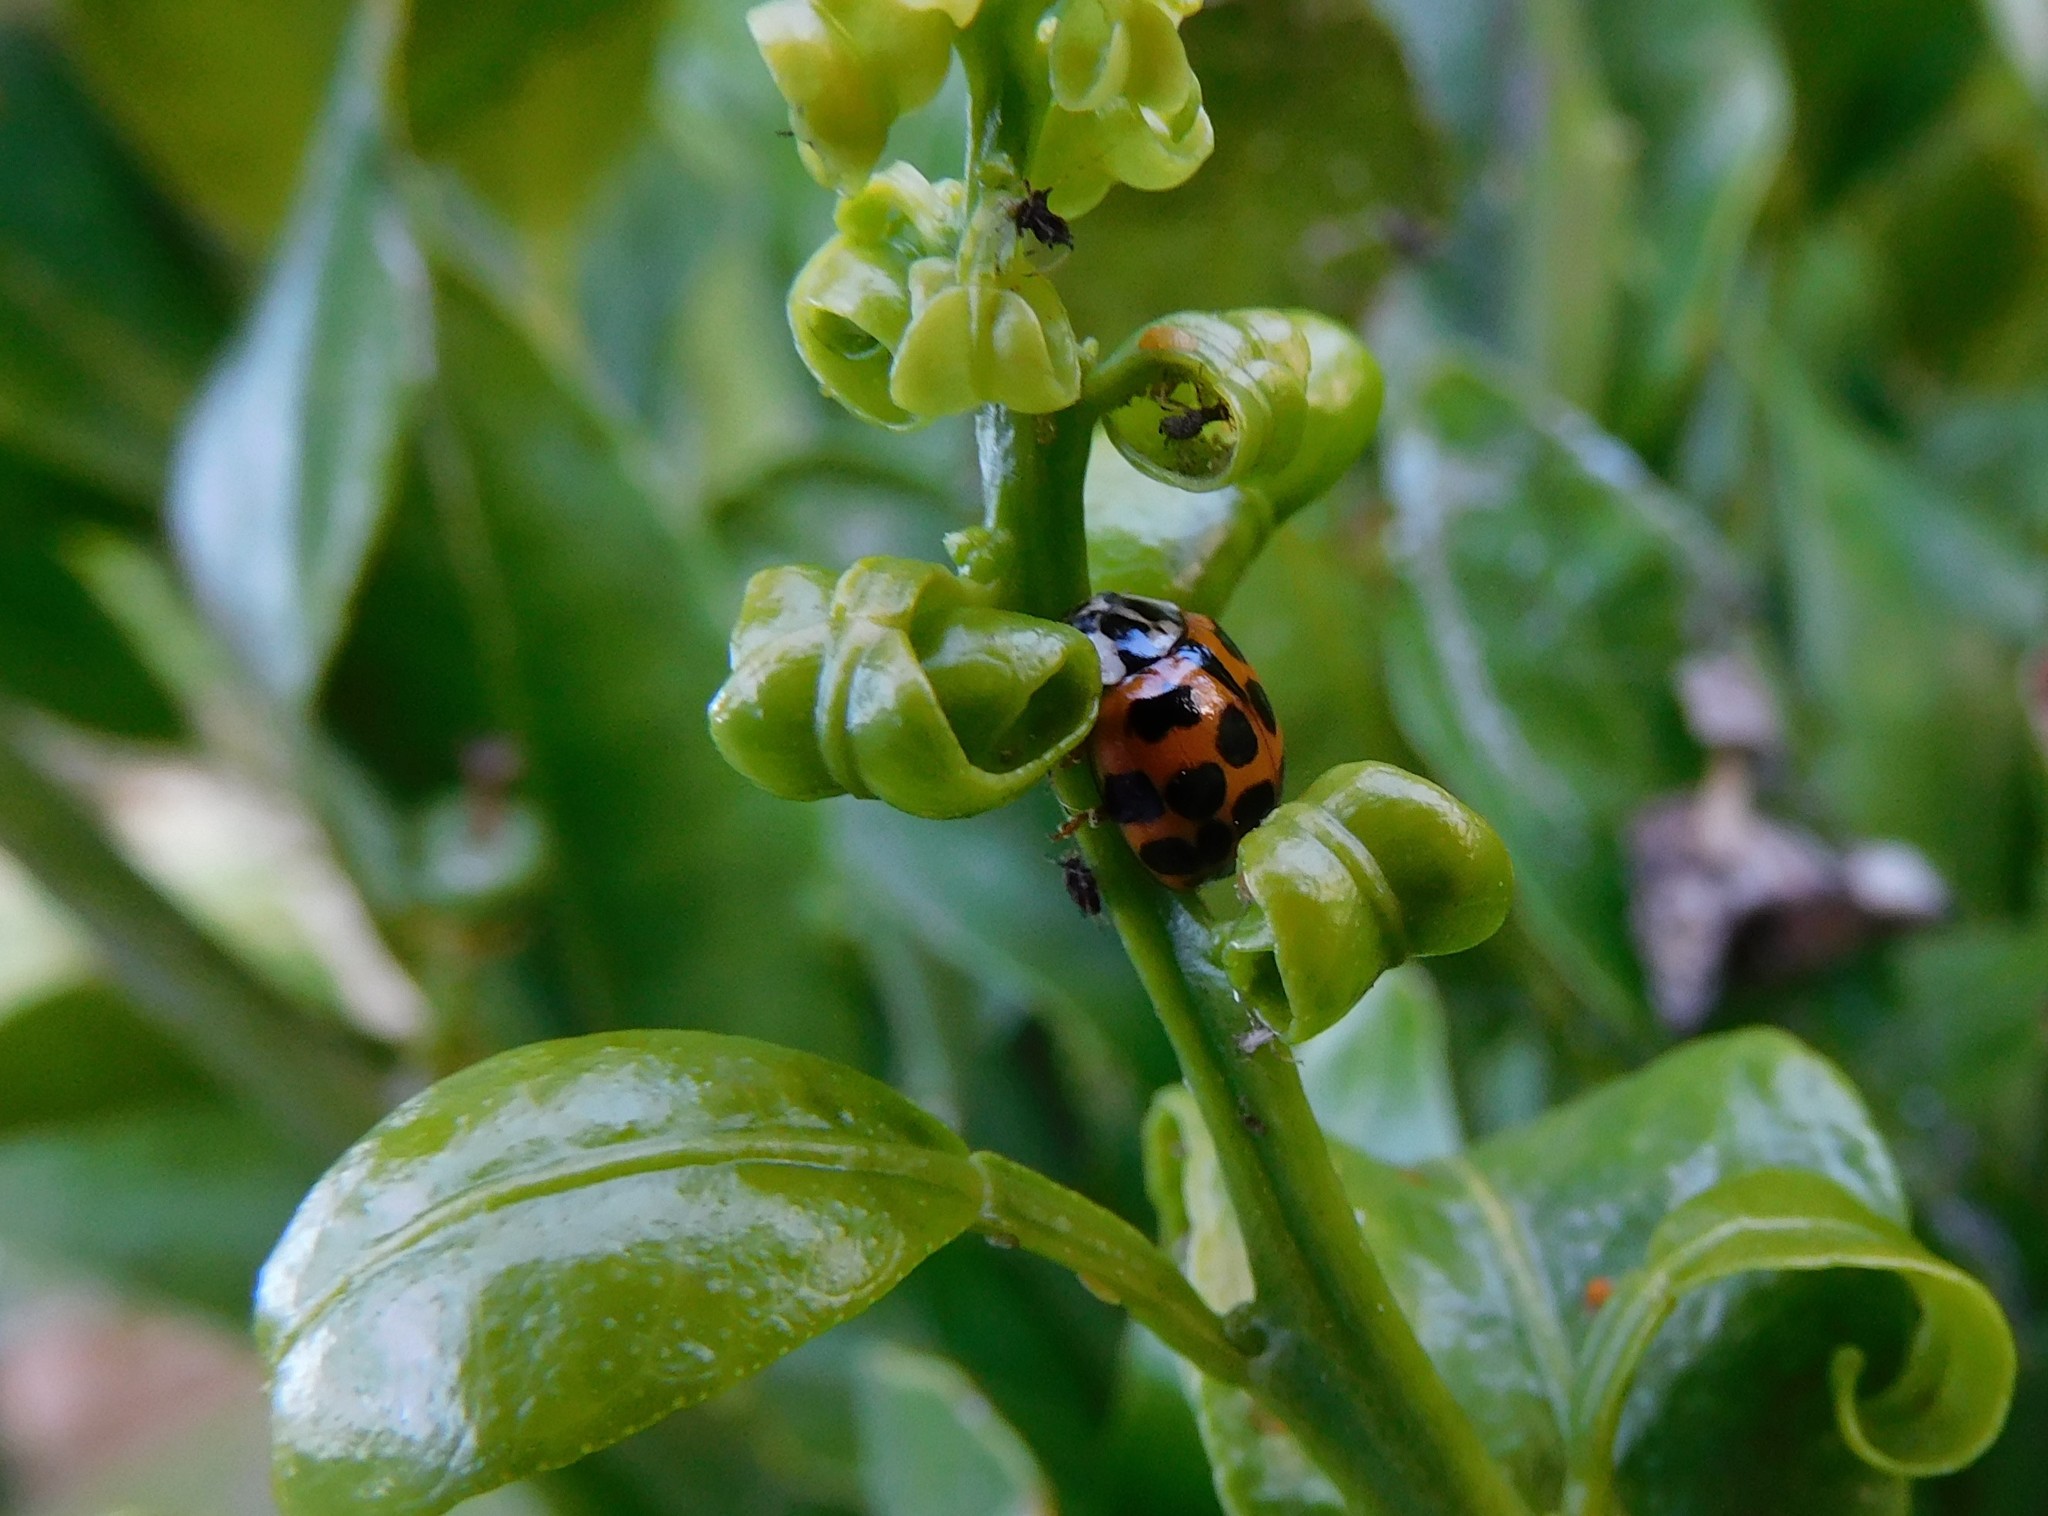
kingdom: Animalia
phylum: Arthropoda
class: Insecta
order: Coleoptera
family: Coccinellidae
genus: Harmonia
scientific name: Harmonia axyridis
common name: Harlequin ladybird
